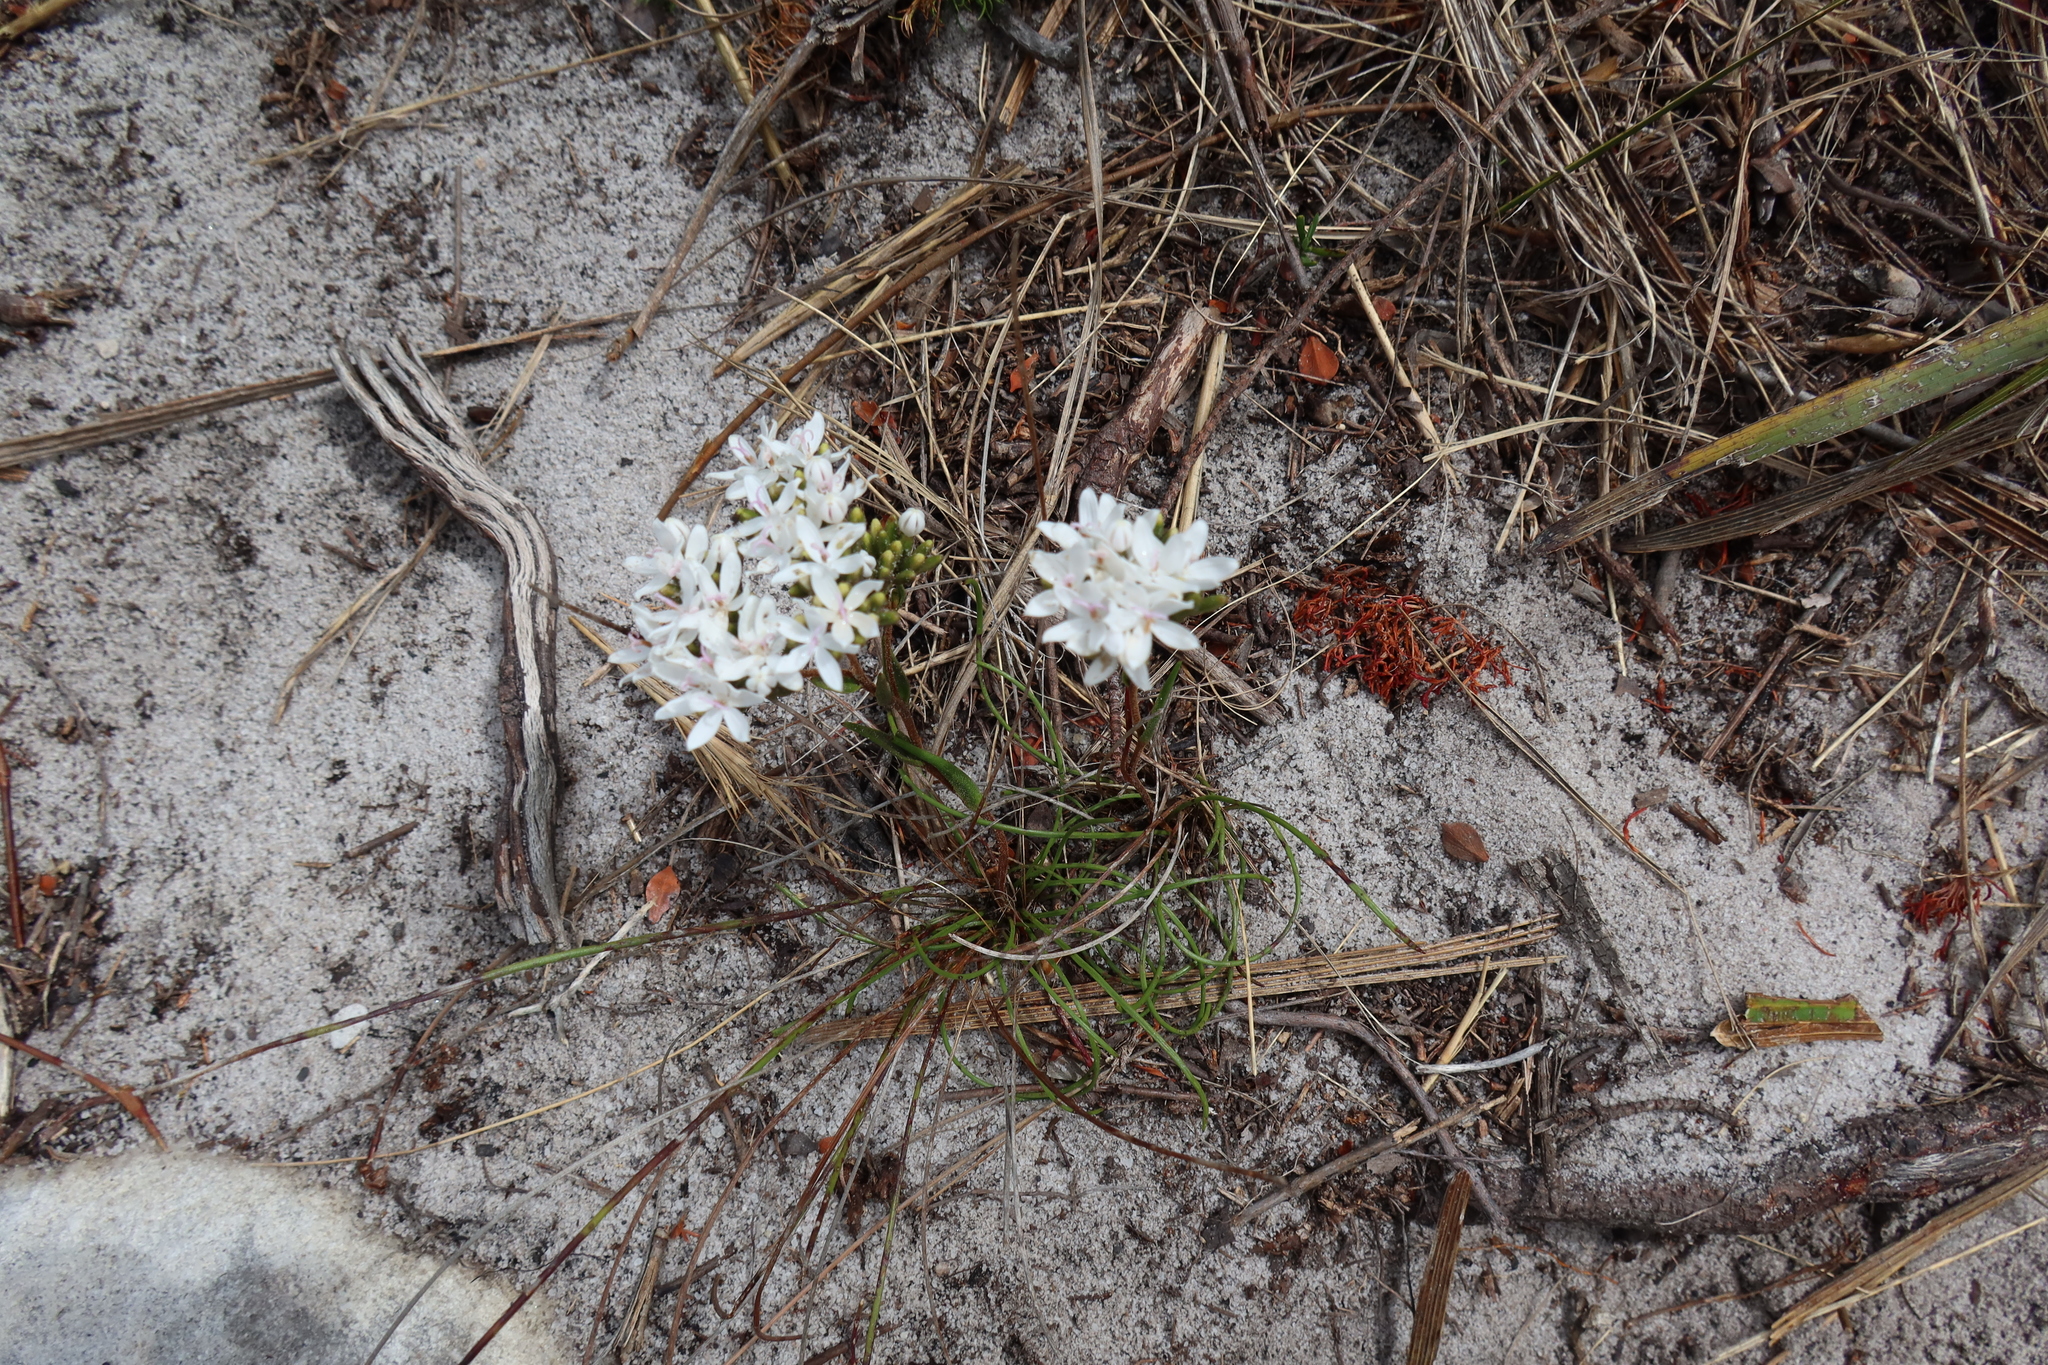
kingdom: Plantae
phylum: Tracheophyta
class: Magnoliopsida
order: Asterales
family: Asteraceae
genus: Corymbium
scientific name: Corymbium africanum
